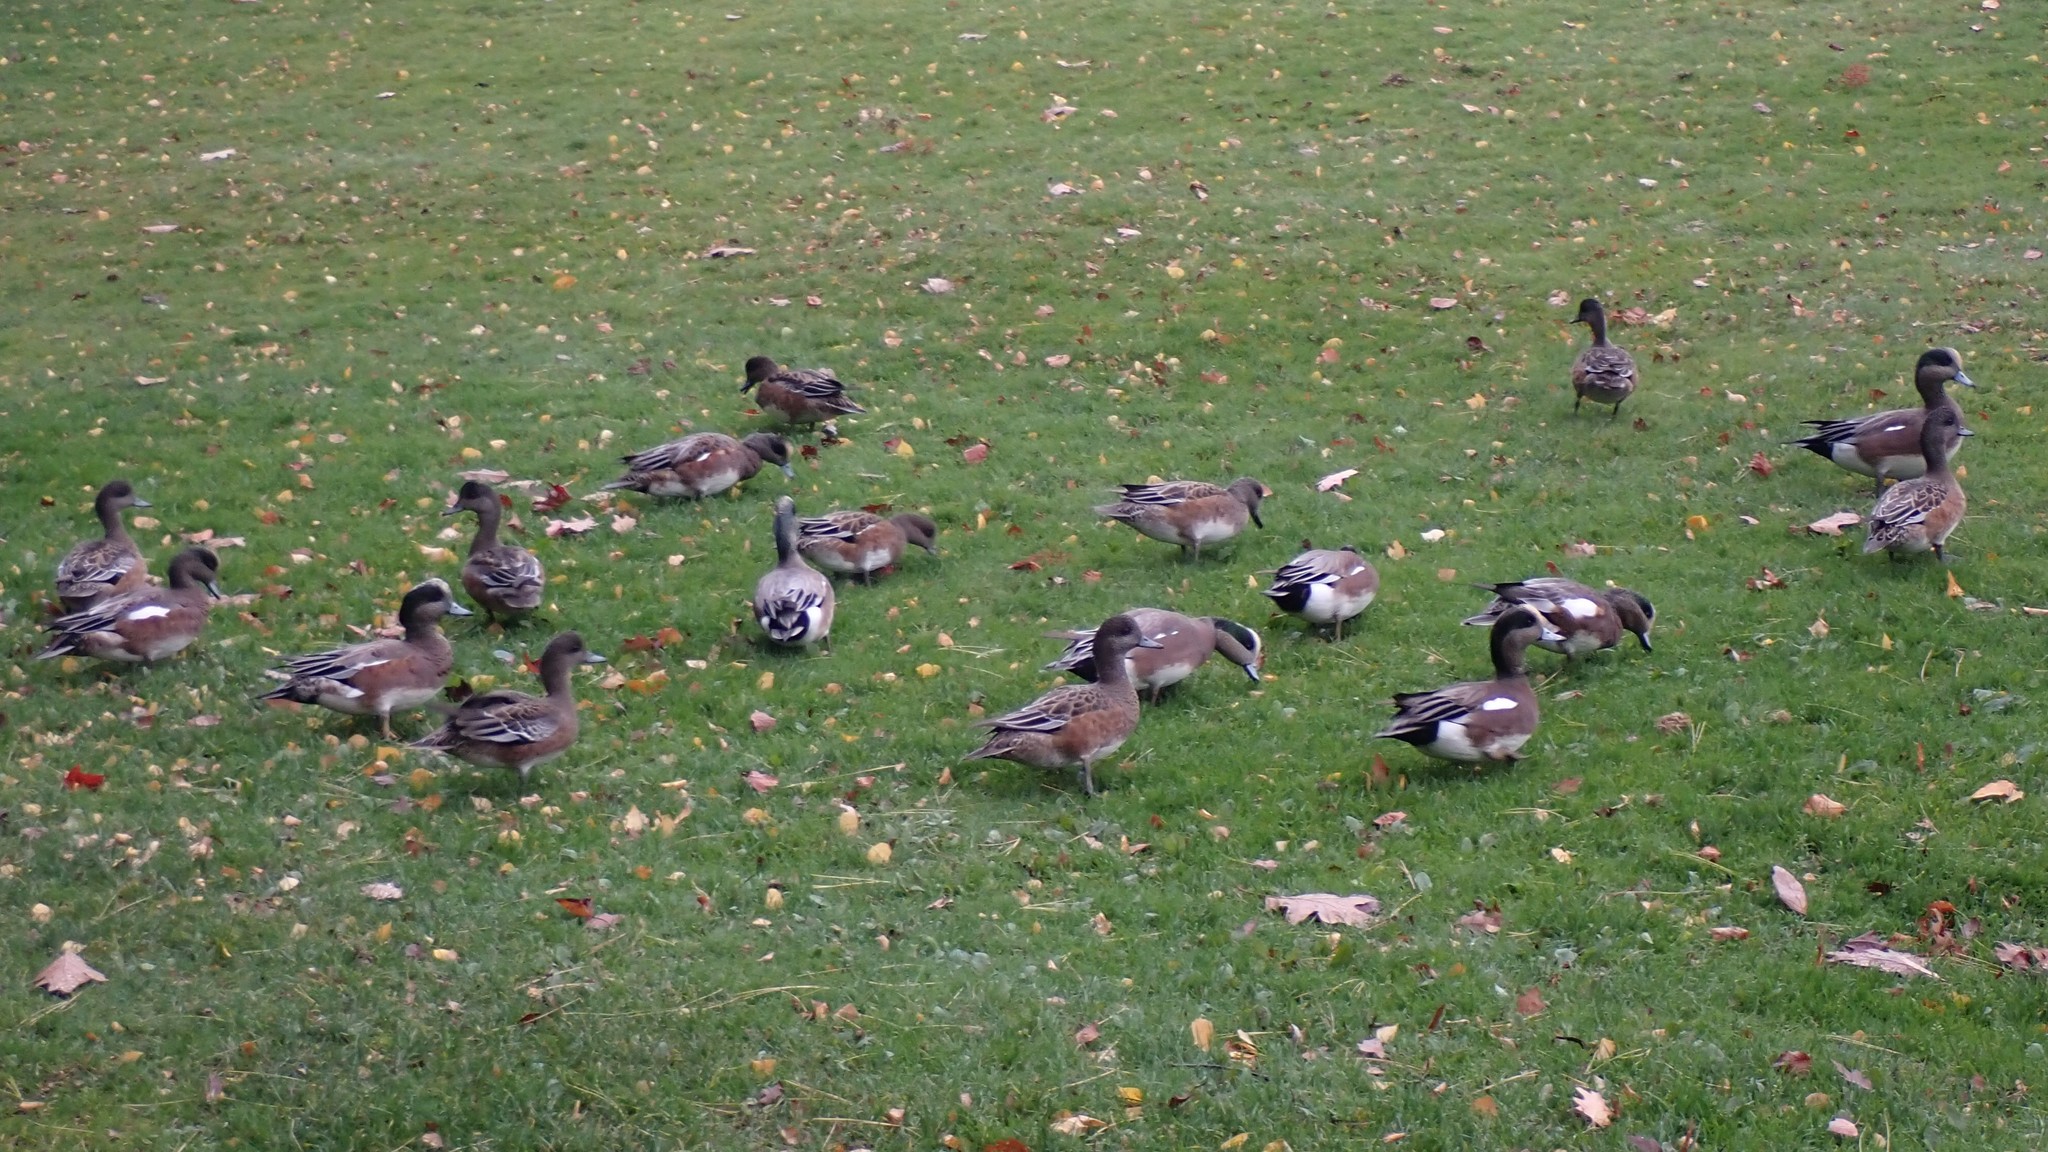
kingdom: Animalia
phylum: Chordata
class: Aves
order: Anseriformes
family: Anatidae
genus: Mareca
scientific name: Mareca americana
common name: American wigeon
